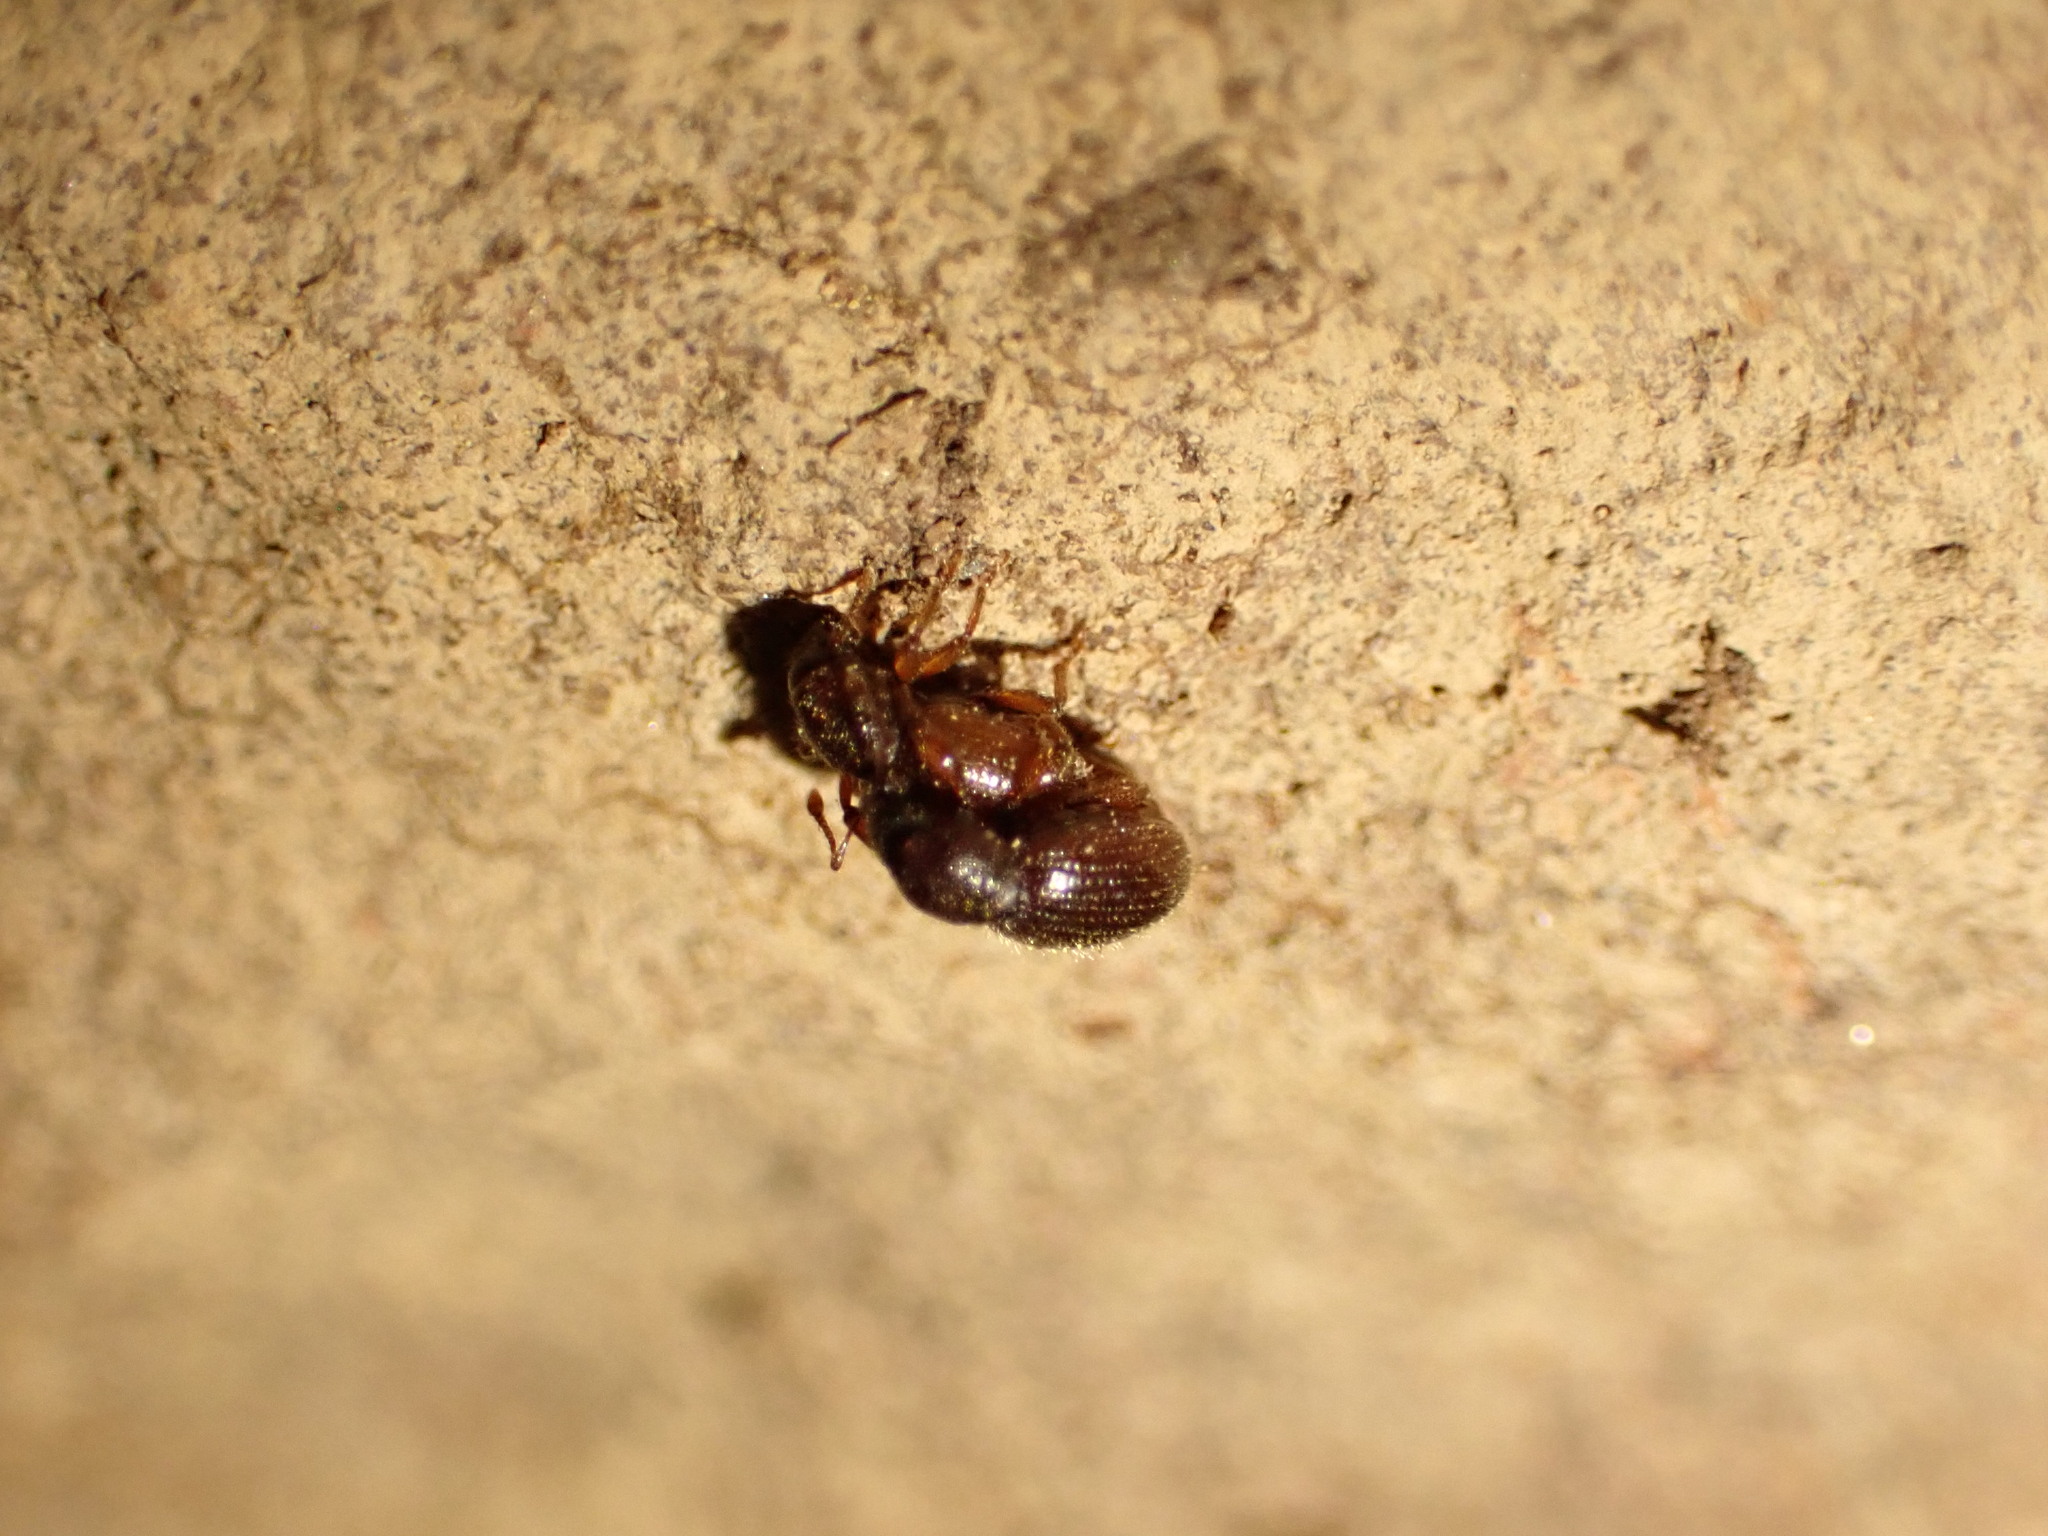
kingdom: Animalia
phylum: Arthropoda
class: Insecta
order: Coleoptera
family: Curculionidae
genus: Exomias
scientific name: Exomias pellucidus
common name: Hairy spider weevil
